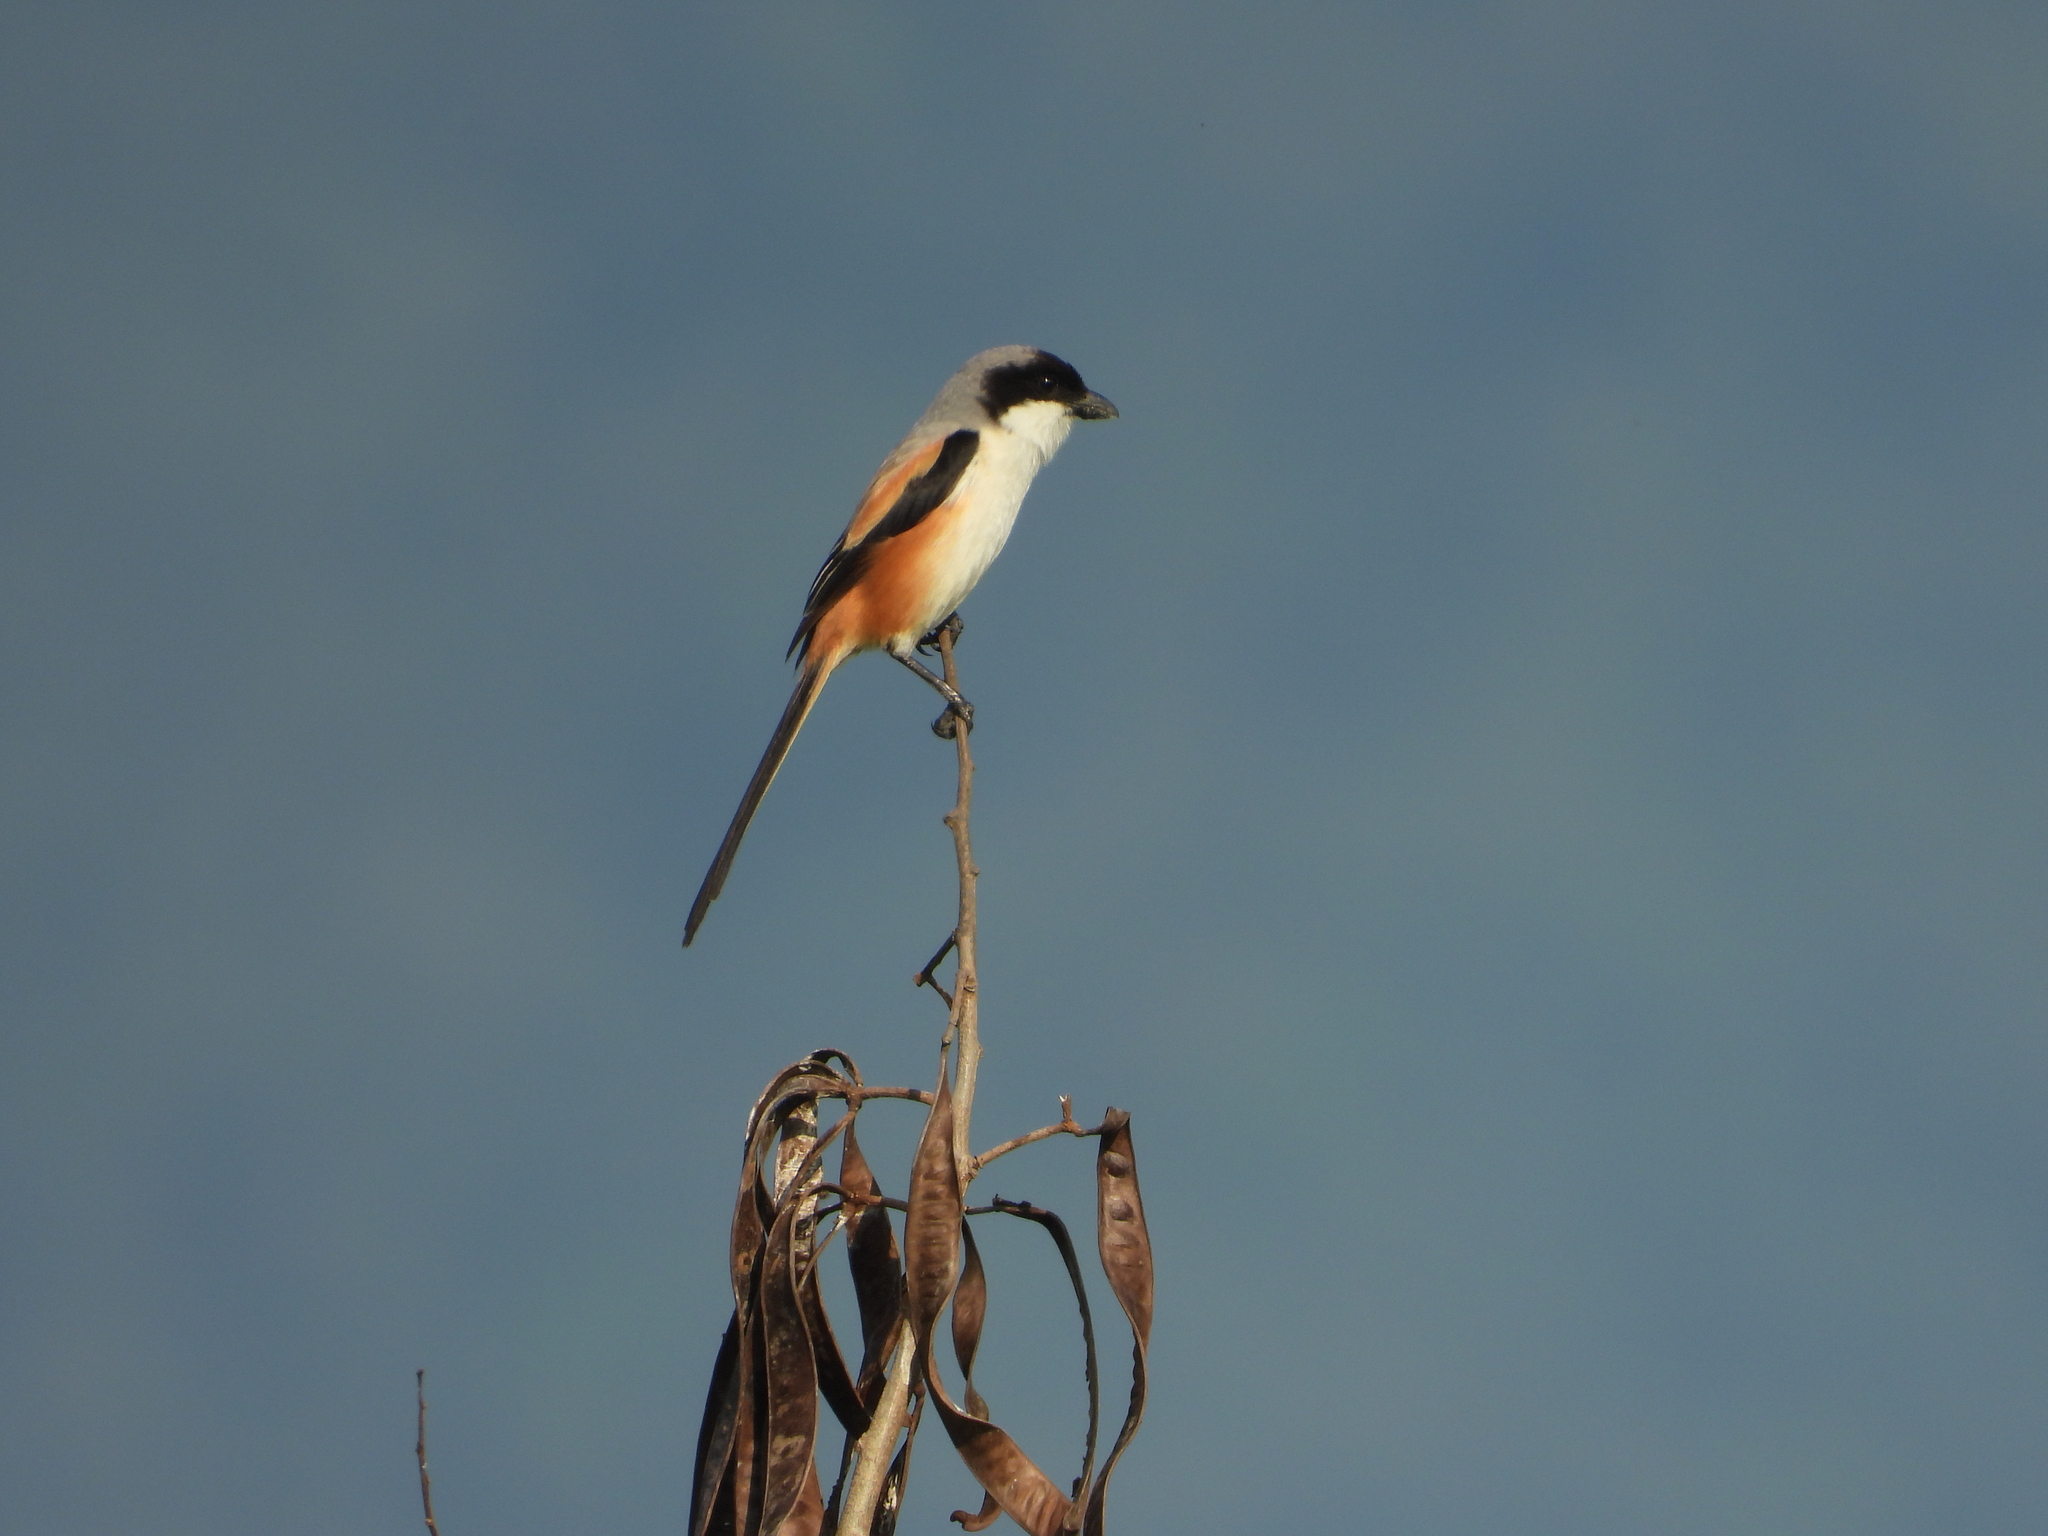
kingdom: Animalia
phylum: Chordata
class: Aves
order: Passeriformes
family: Laniidae
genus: Lanius
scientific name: Lanius schach
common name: Long-tailed shrike
